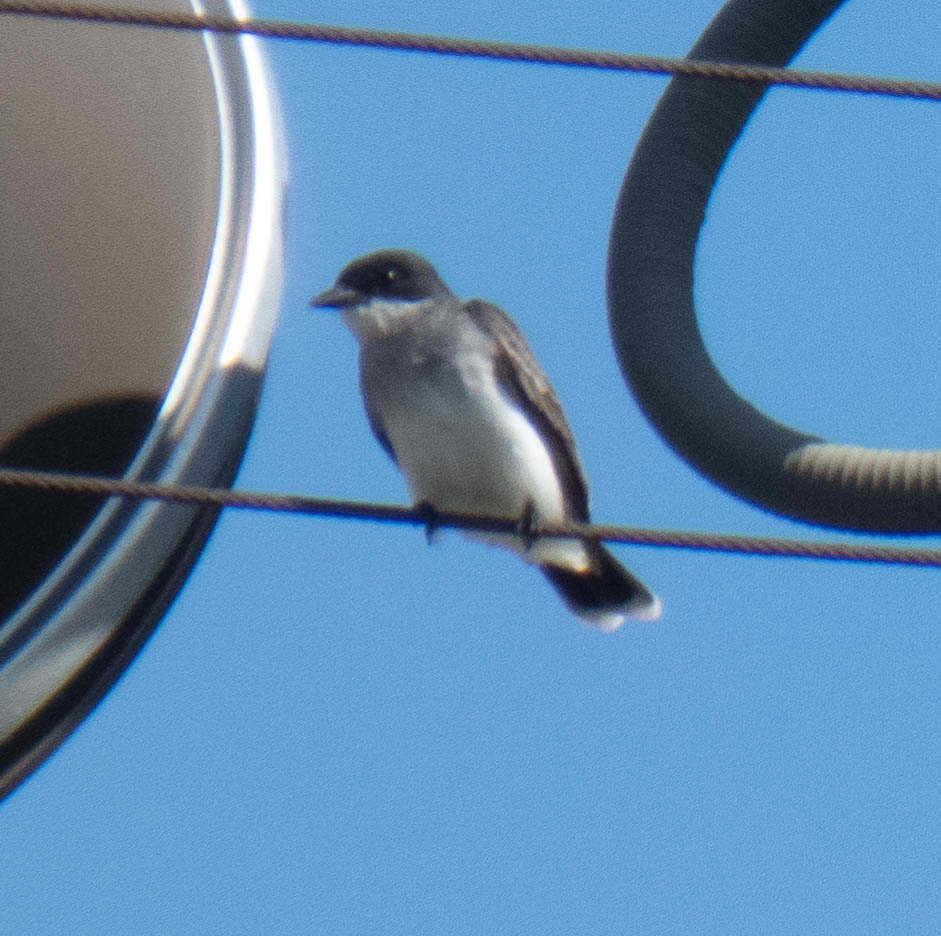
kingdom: Animalia
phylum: Chordata
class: Aves
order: Passeriformes
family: Tyrannidae
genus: Tyrannus
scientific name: Tyrannus tyrannus
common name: Eastern kingbird
